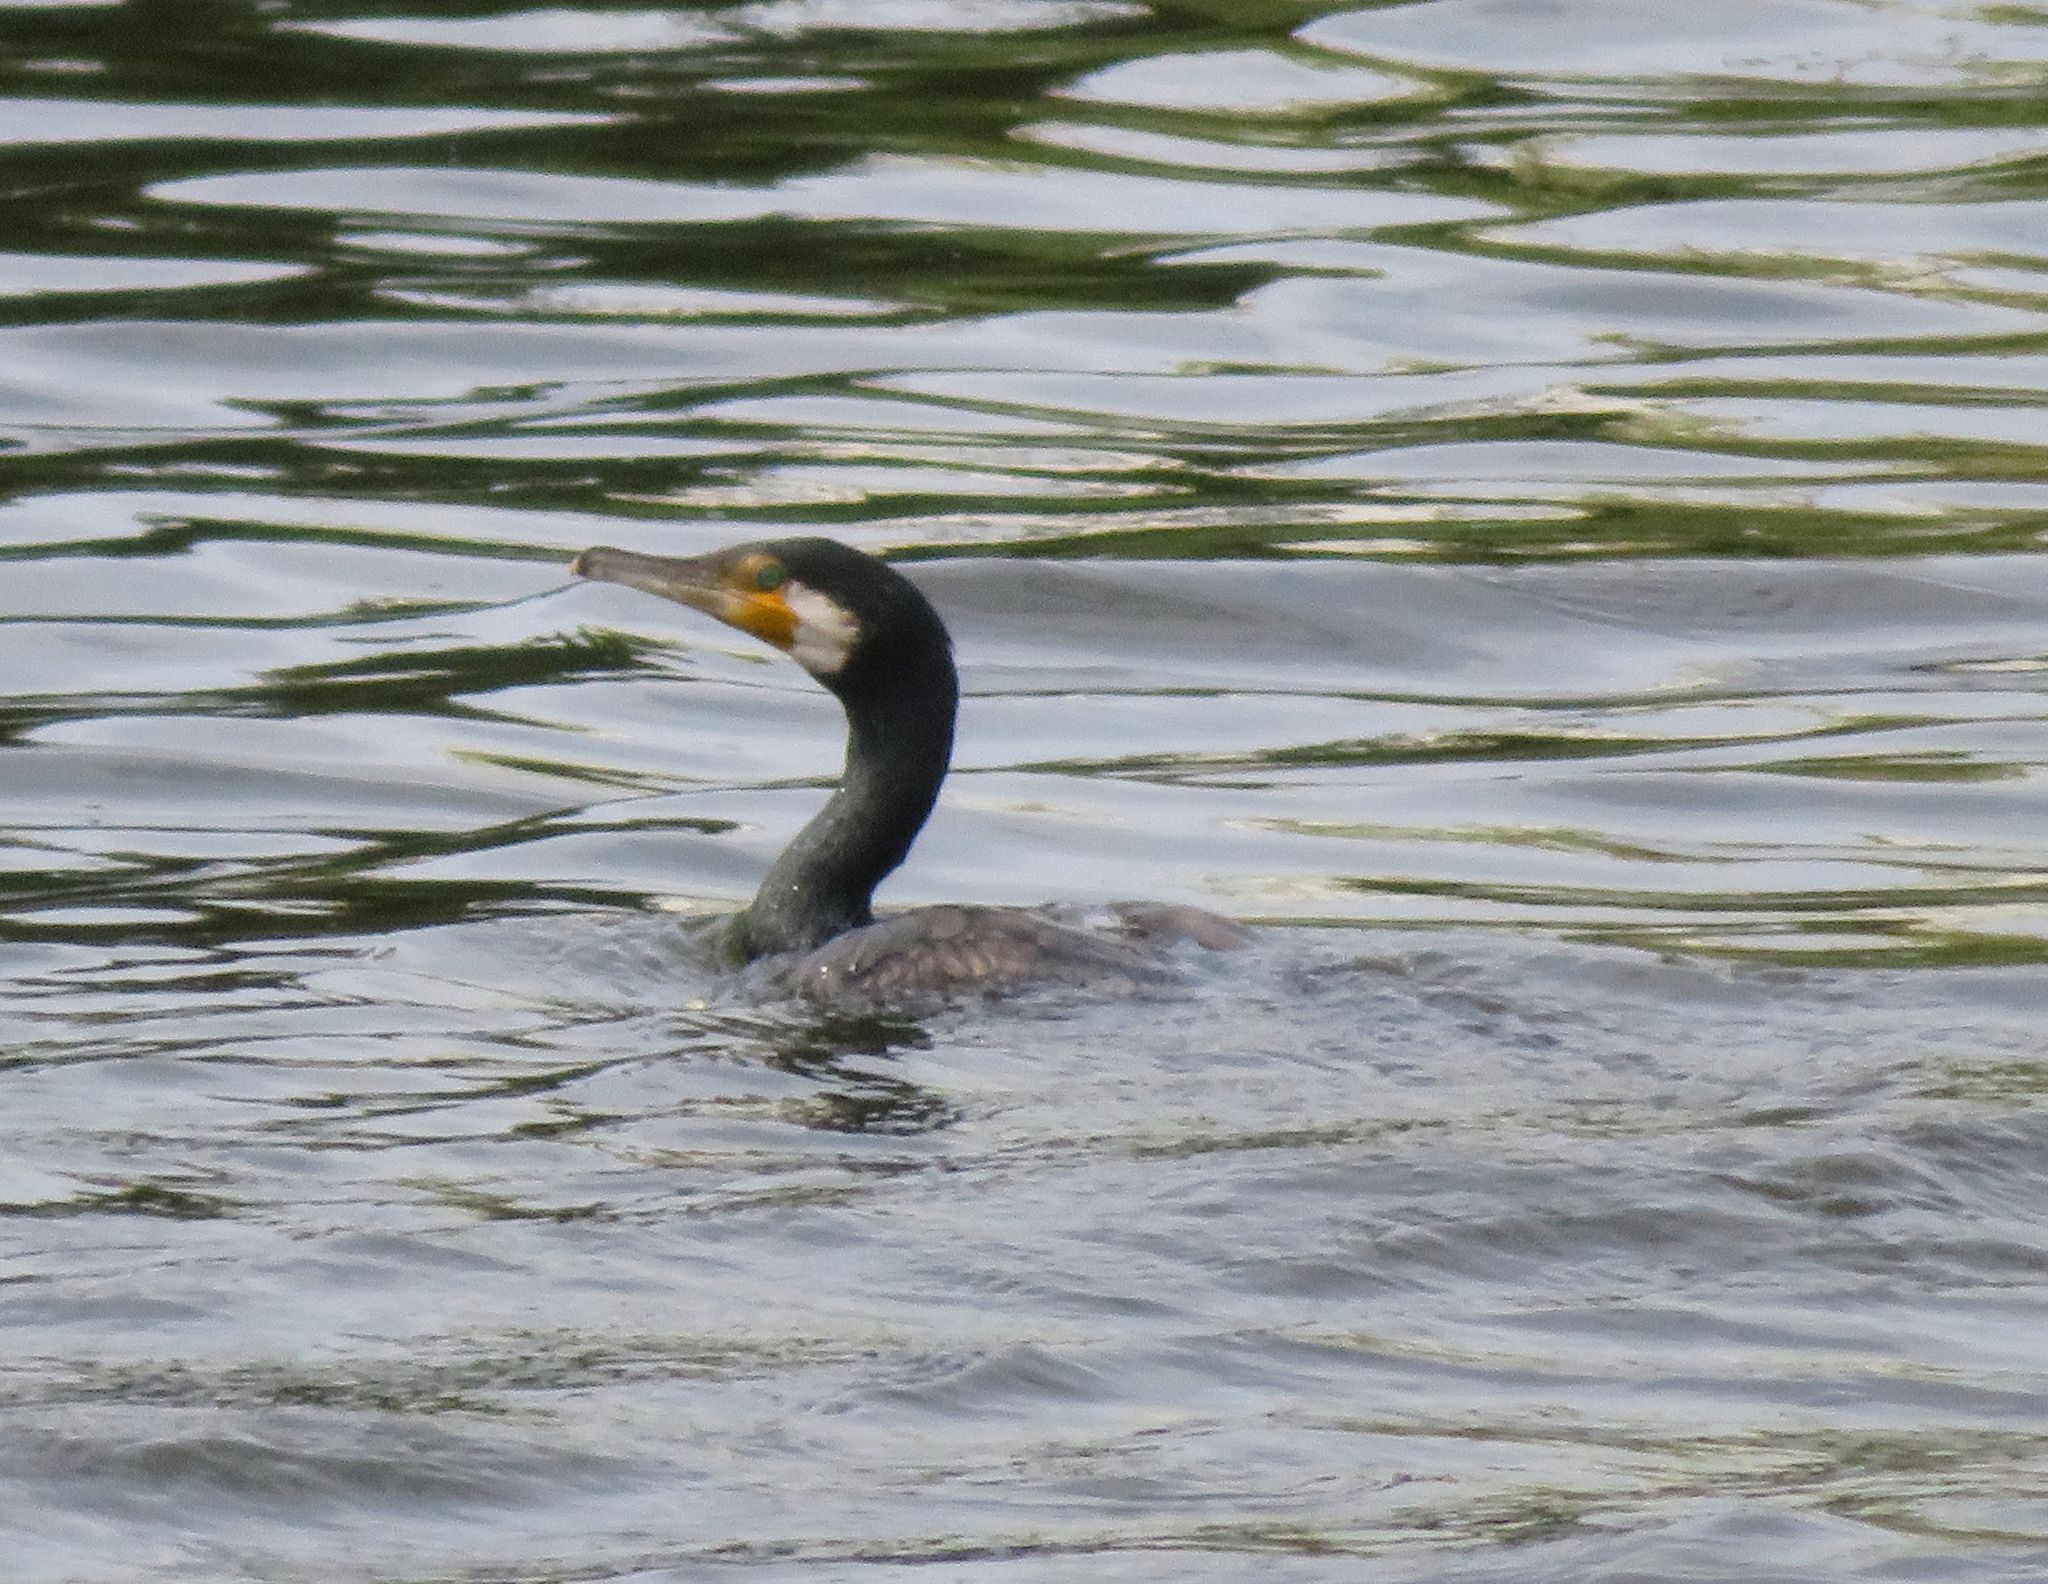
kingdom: Animalia
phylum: Chordata
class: Aves
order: Suliformes
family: Phalacrocoracidae
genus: Phalacrocorax
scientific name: Phalacrocorax carbo
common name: Great cormorant
